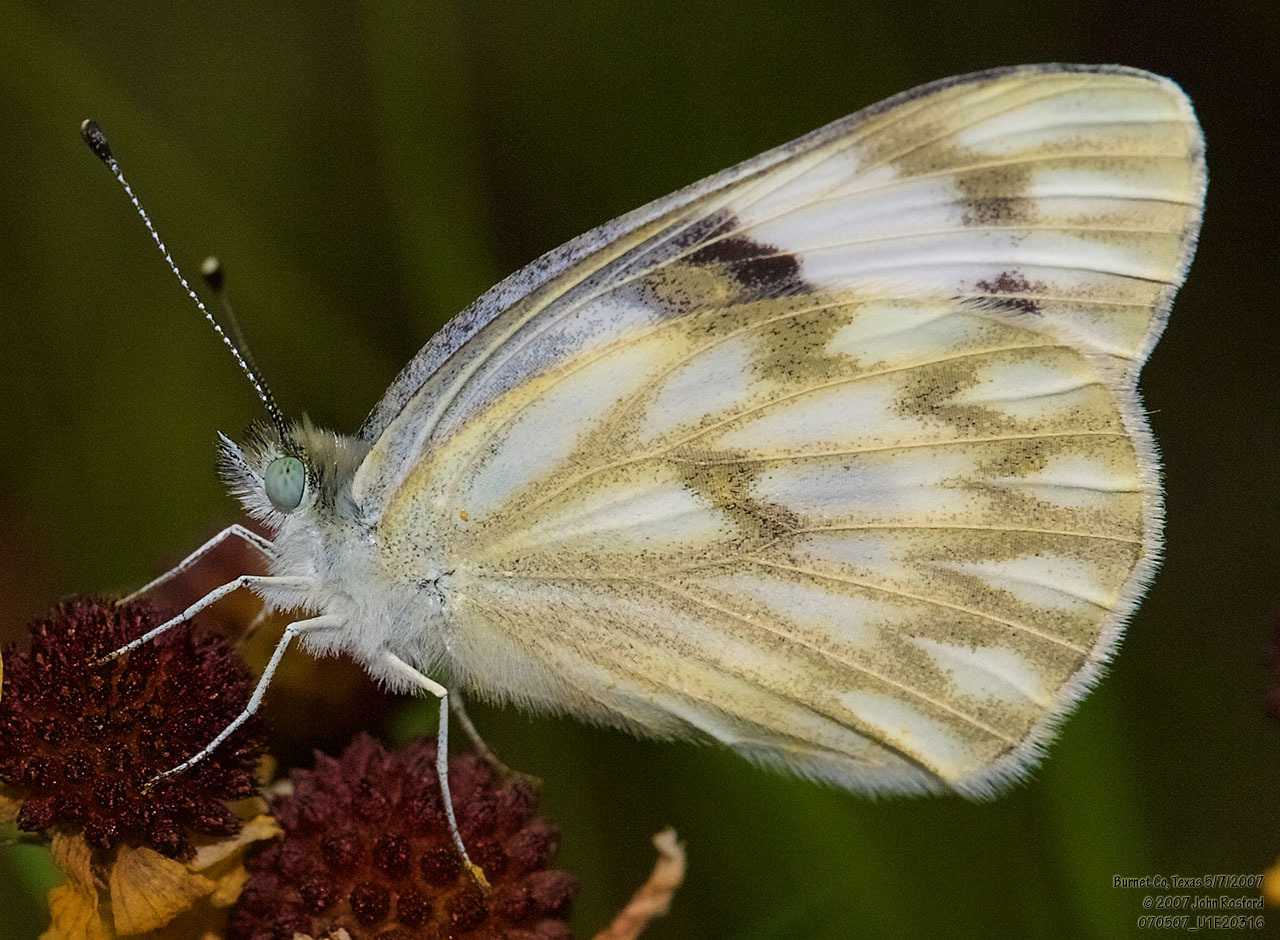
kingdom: Animalia
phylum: Arthropoda
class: Insecta
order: Lepidoptera
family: Pieridae
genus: Pontia
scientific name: Pontia protodice
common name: Checkered white
